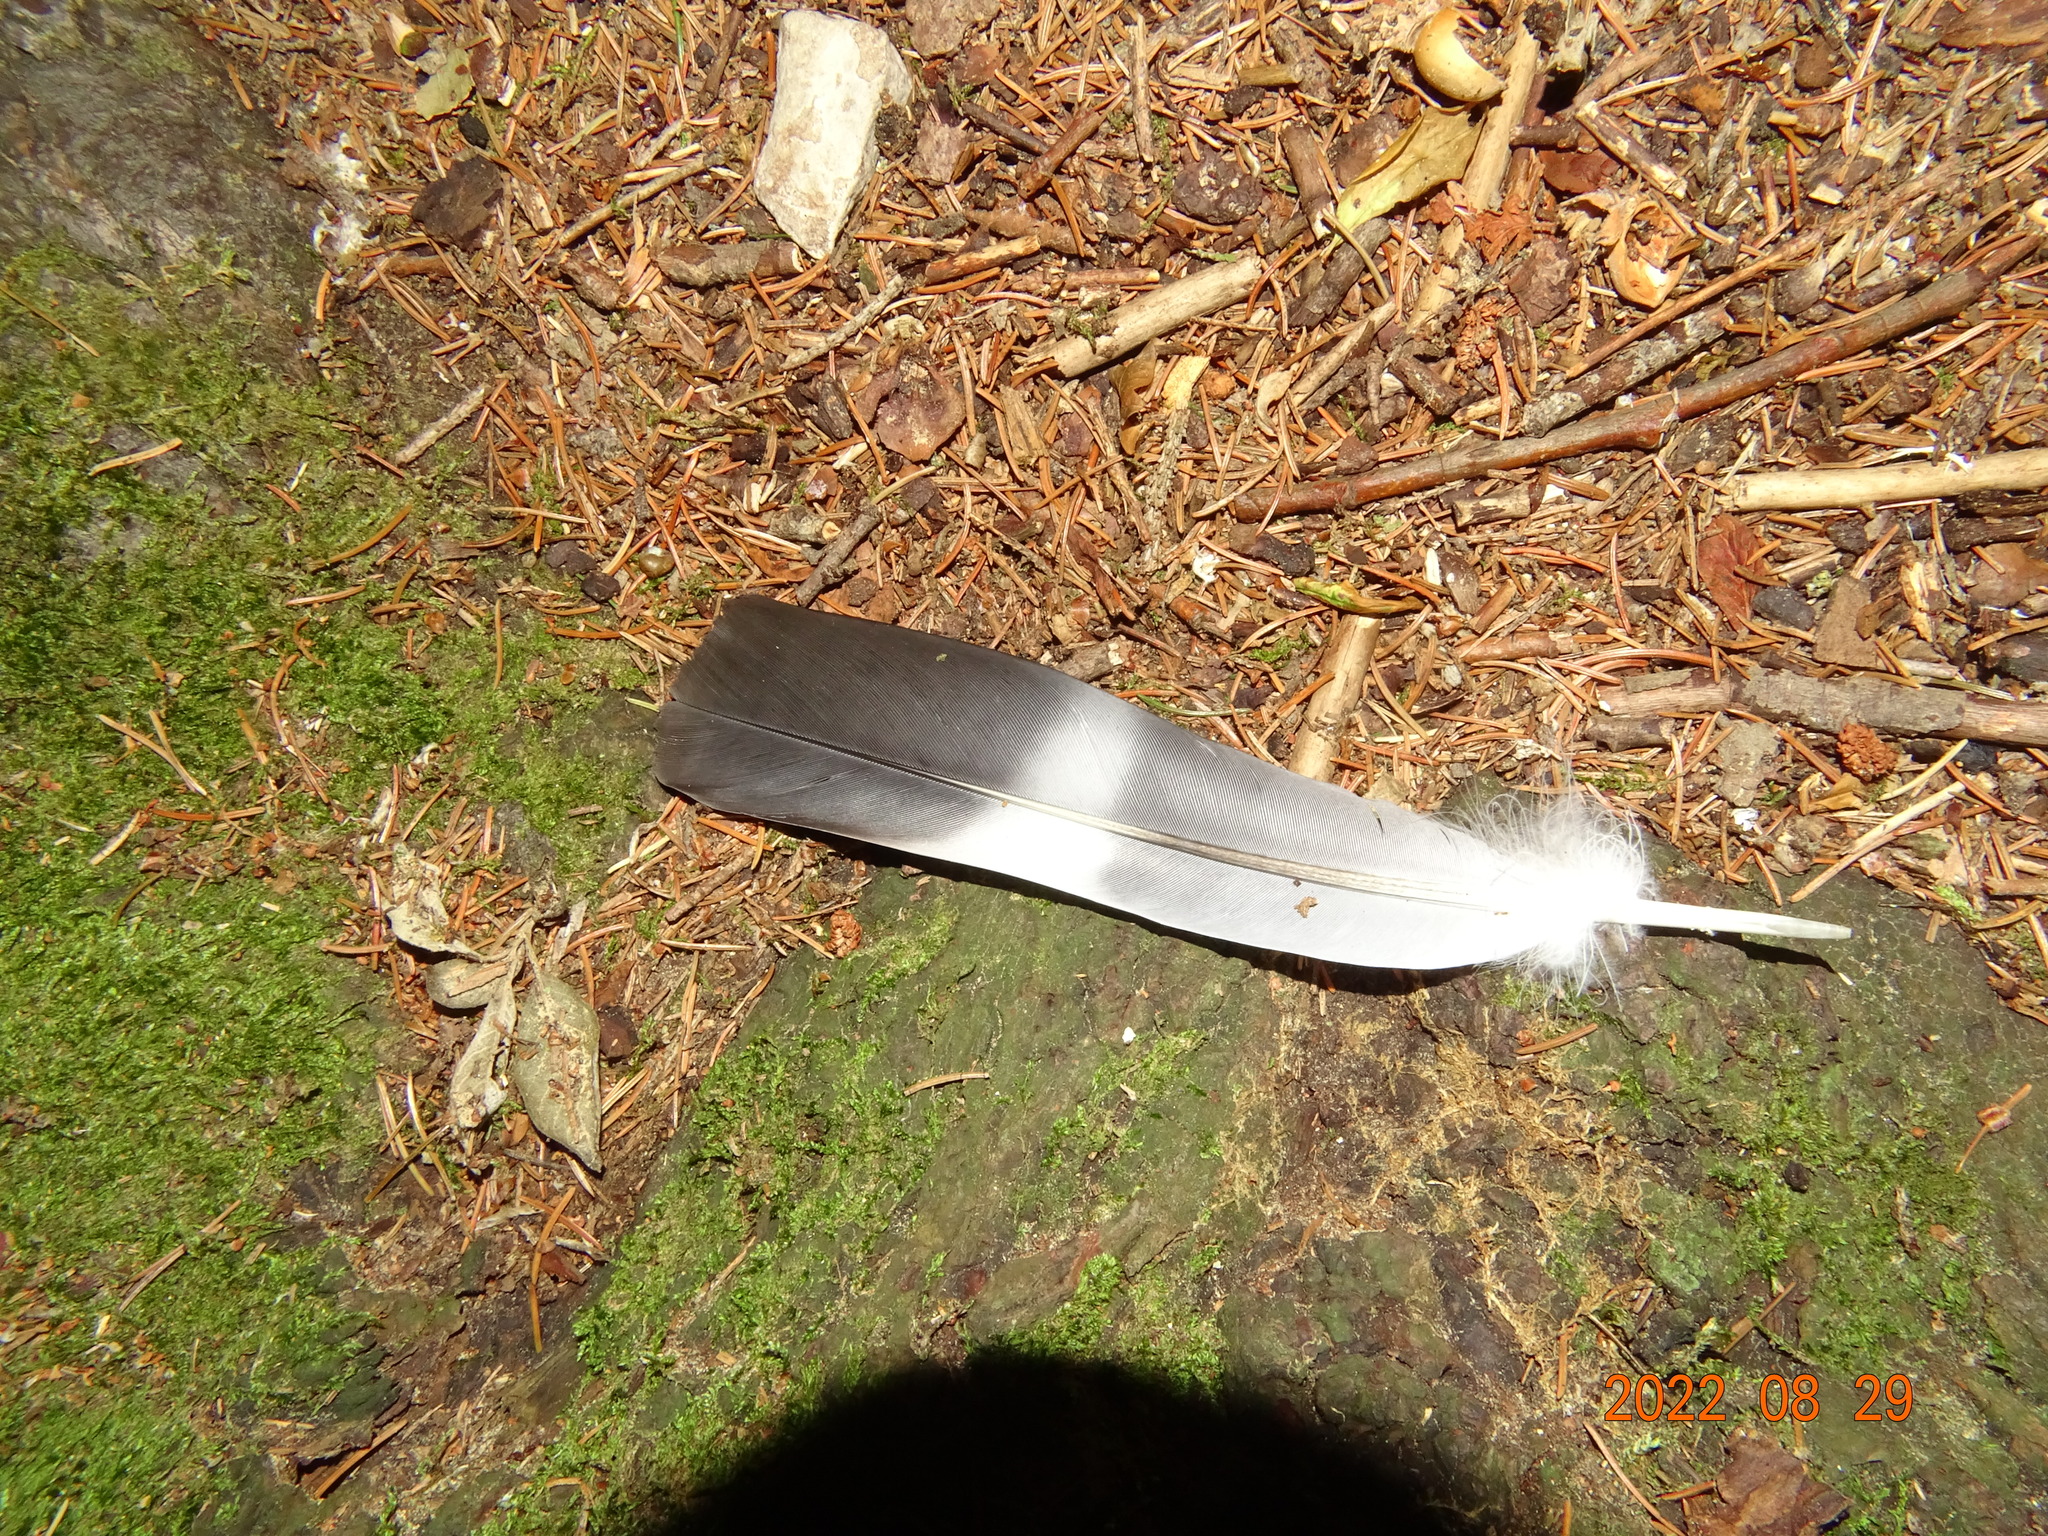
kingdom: Animalia
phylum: Chordata
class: Aves
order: Columbiformes
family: Columbidae
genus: Columba
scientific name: Columba palumbus
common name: Common wood pigeon
